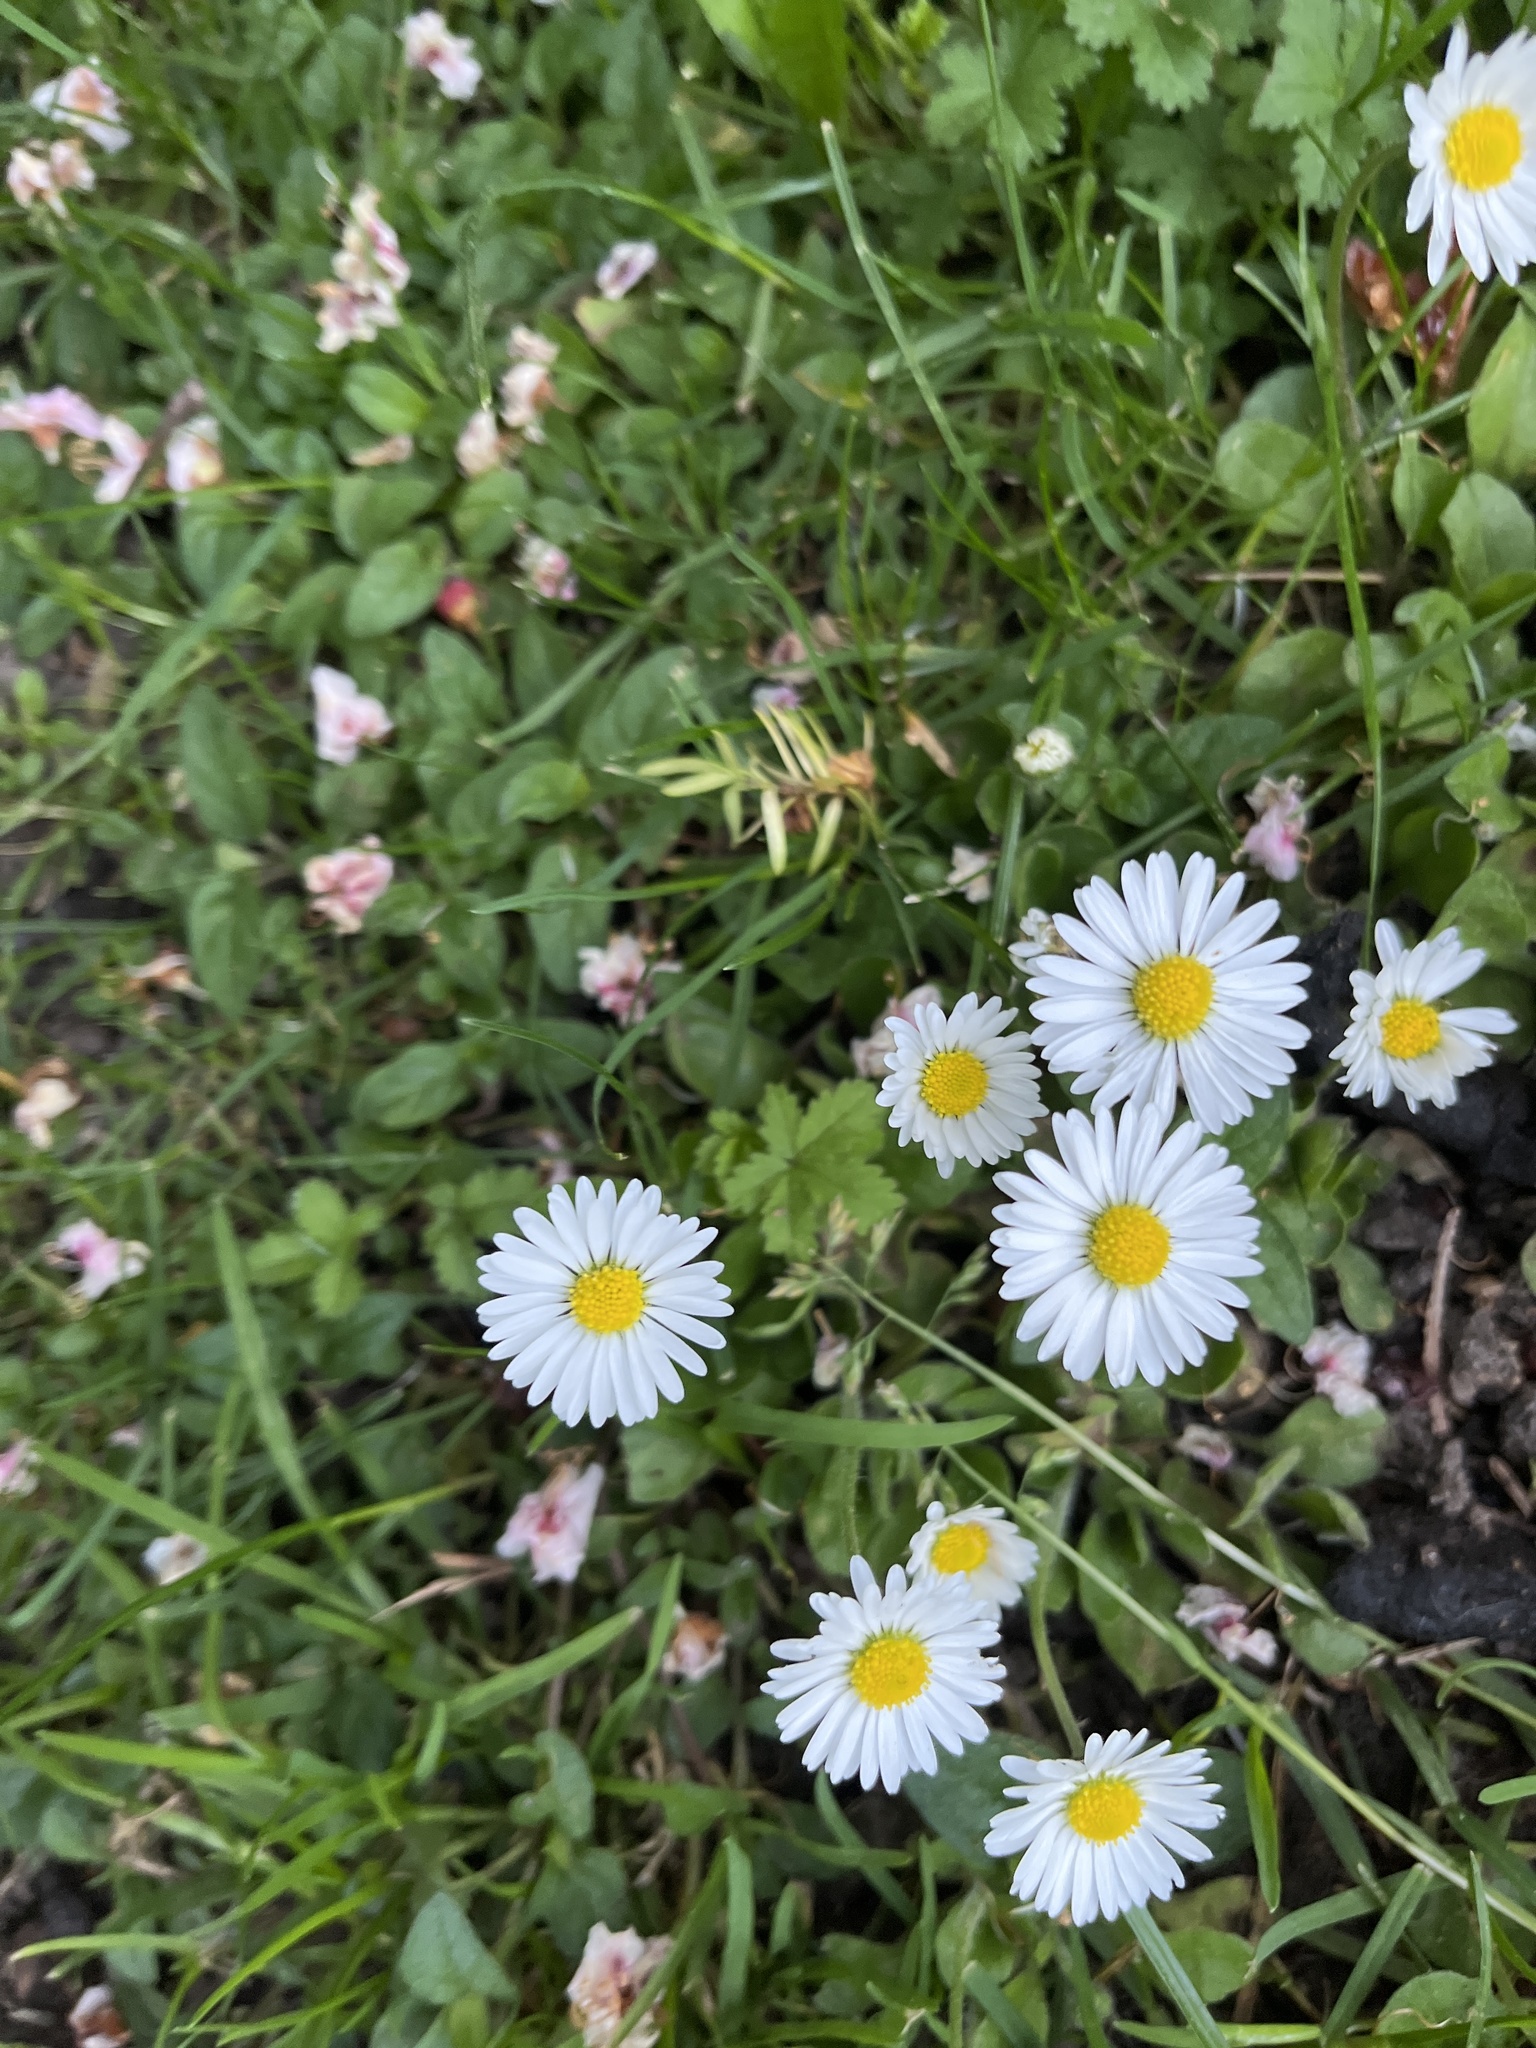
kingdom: Plantae
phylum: Tracheophyta
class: Magnoliopsida
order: Asterales
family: Asteraceae
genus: Bellis
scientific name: Bellis perennis
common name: Lawndaisy
